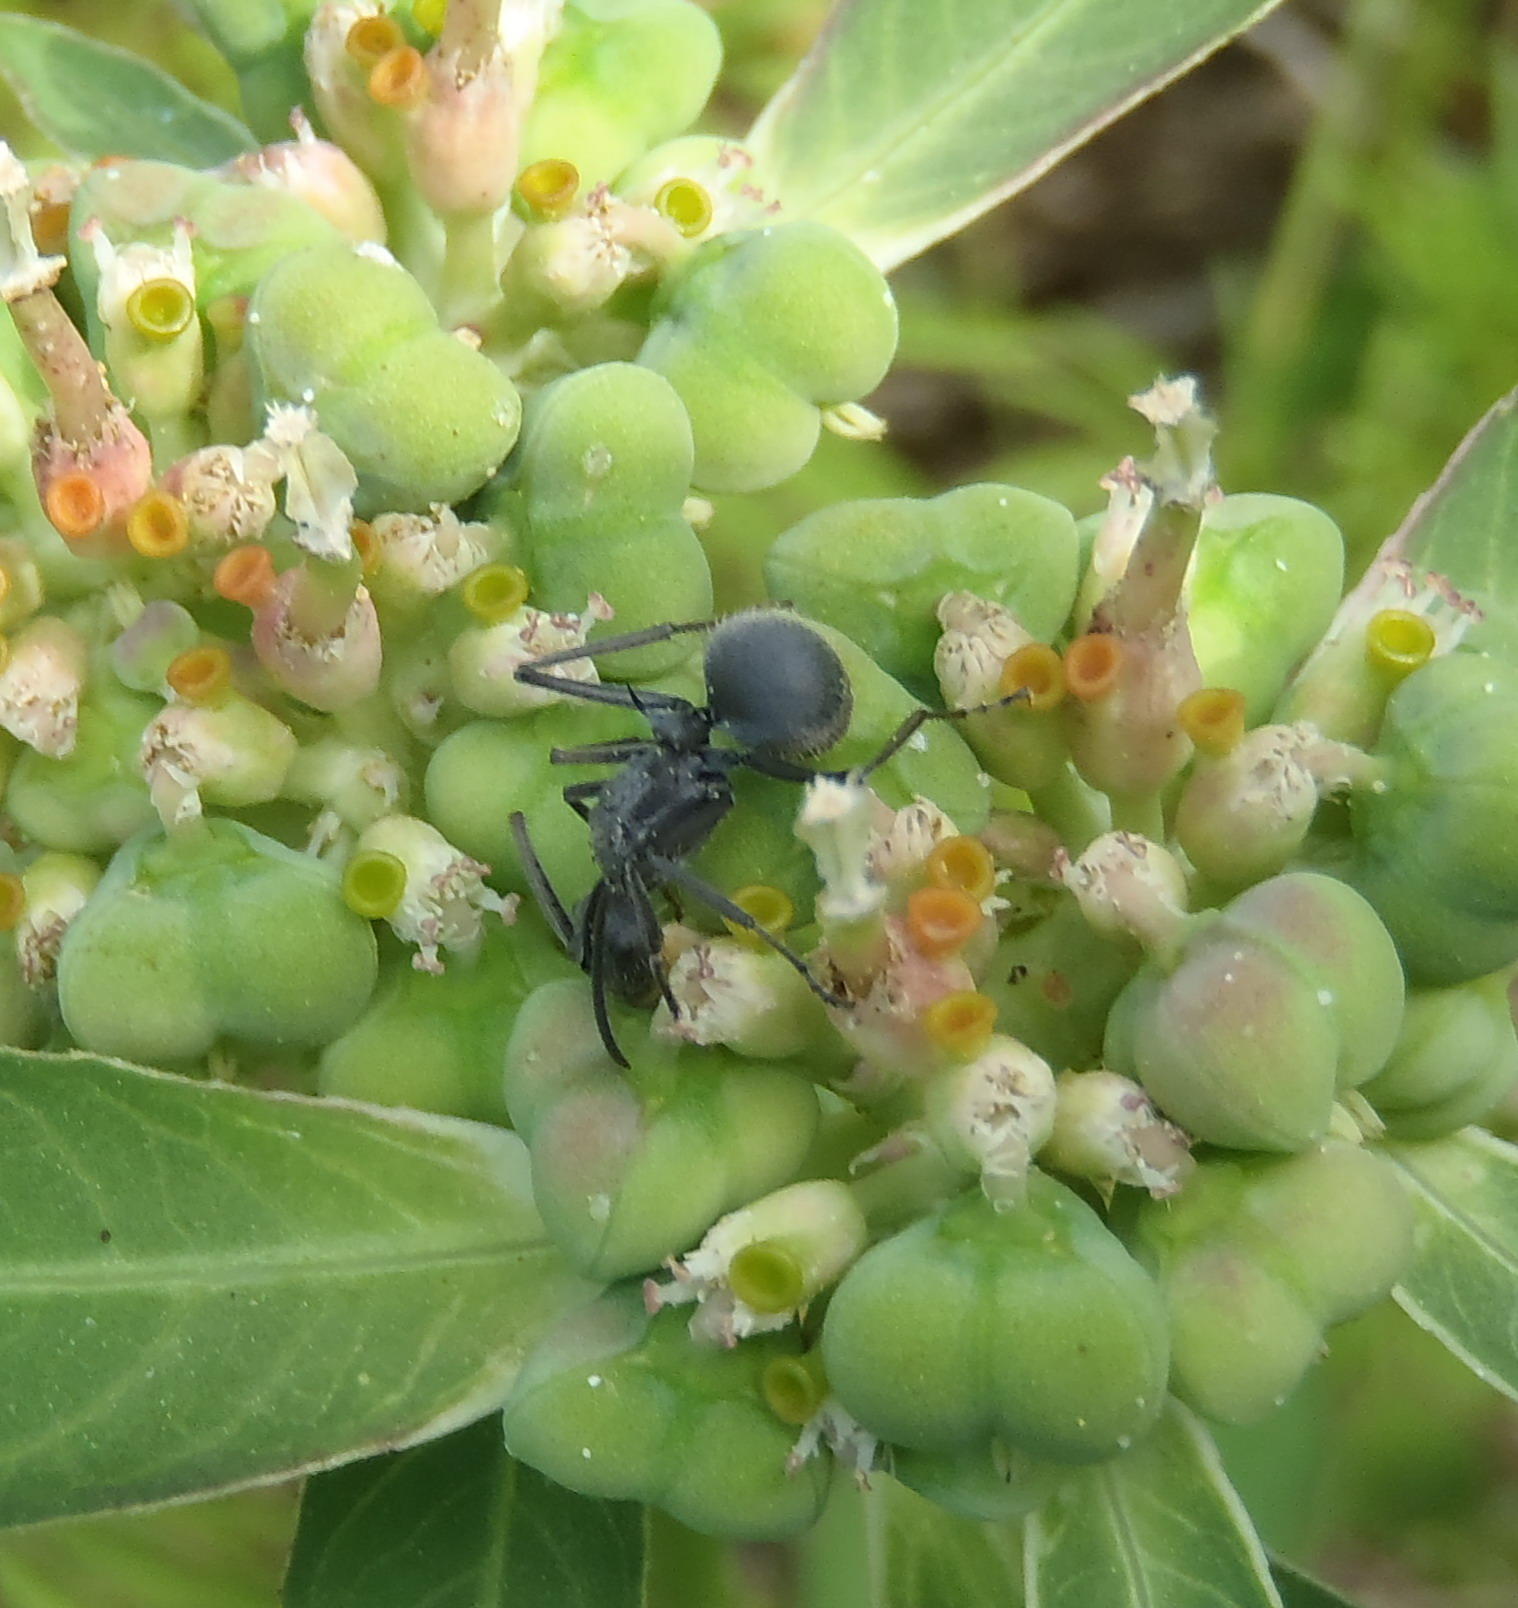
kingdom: Animalia
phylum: Arthropoda
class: Insecta
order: Hymenoptera
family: Formicidae
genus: Polyrhachis
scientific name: Polyrhachis schistacea
